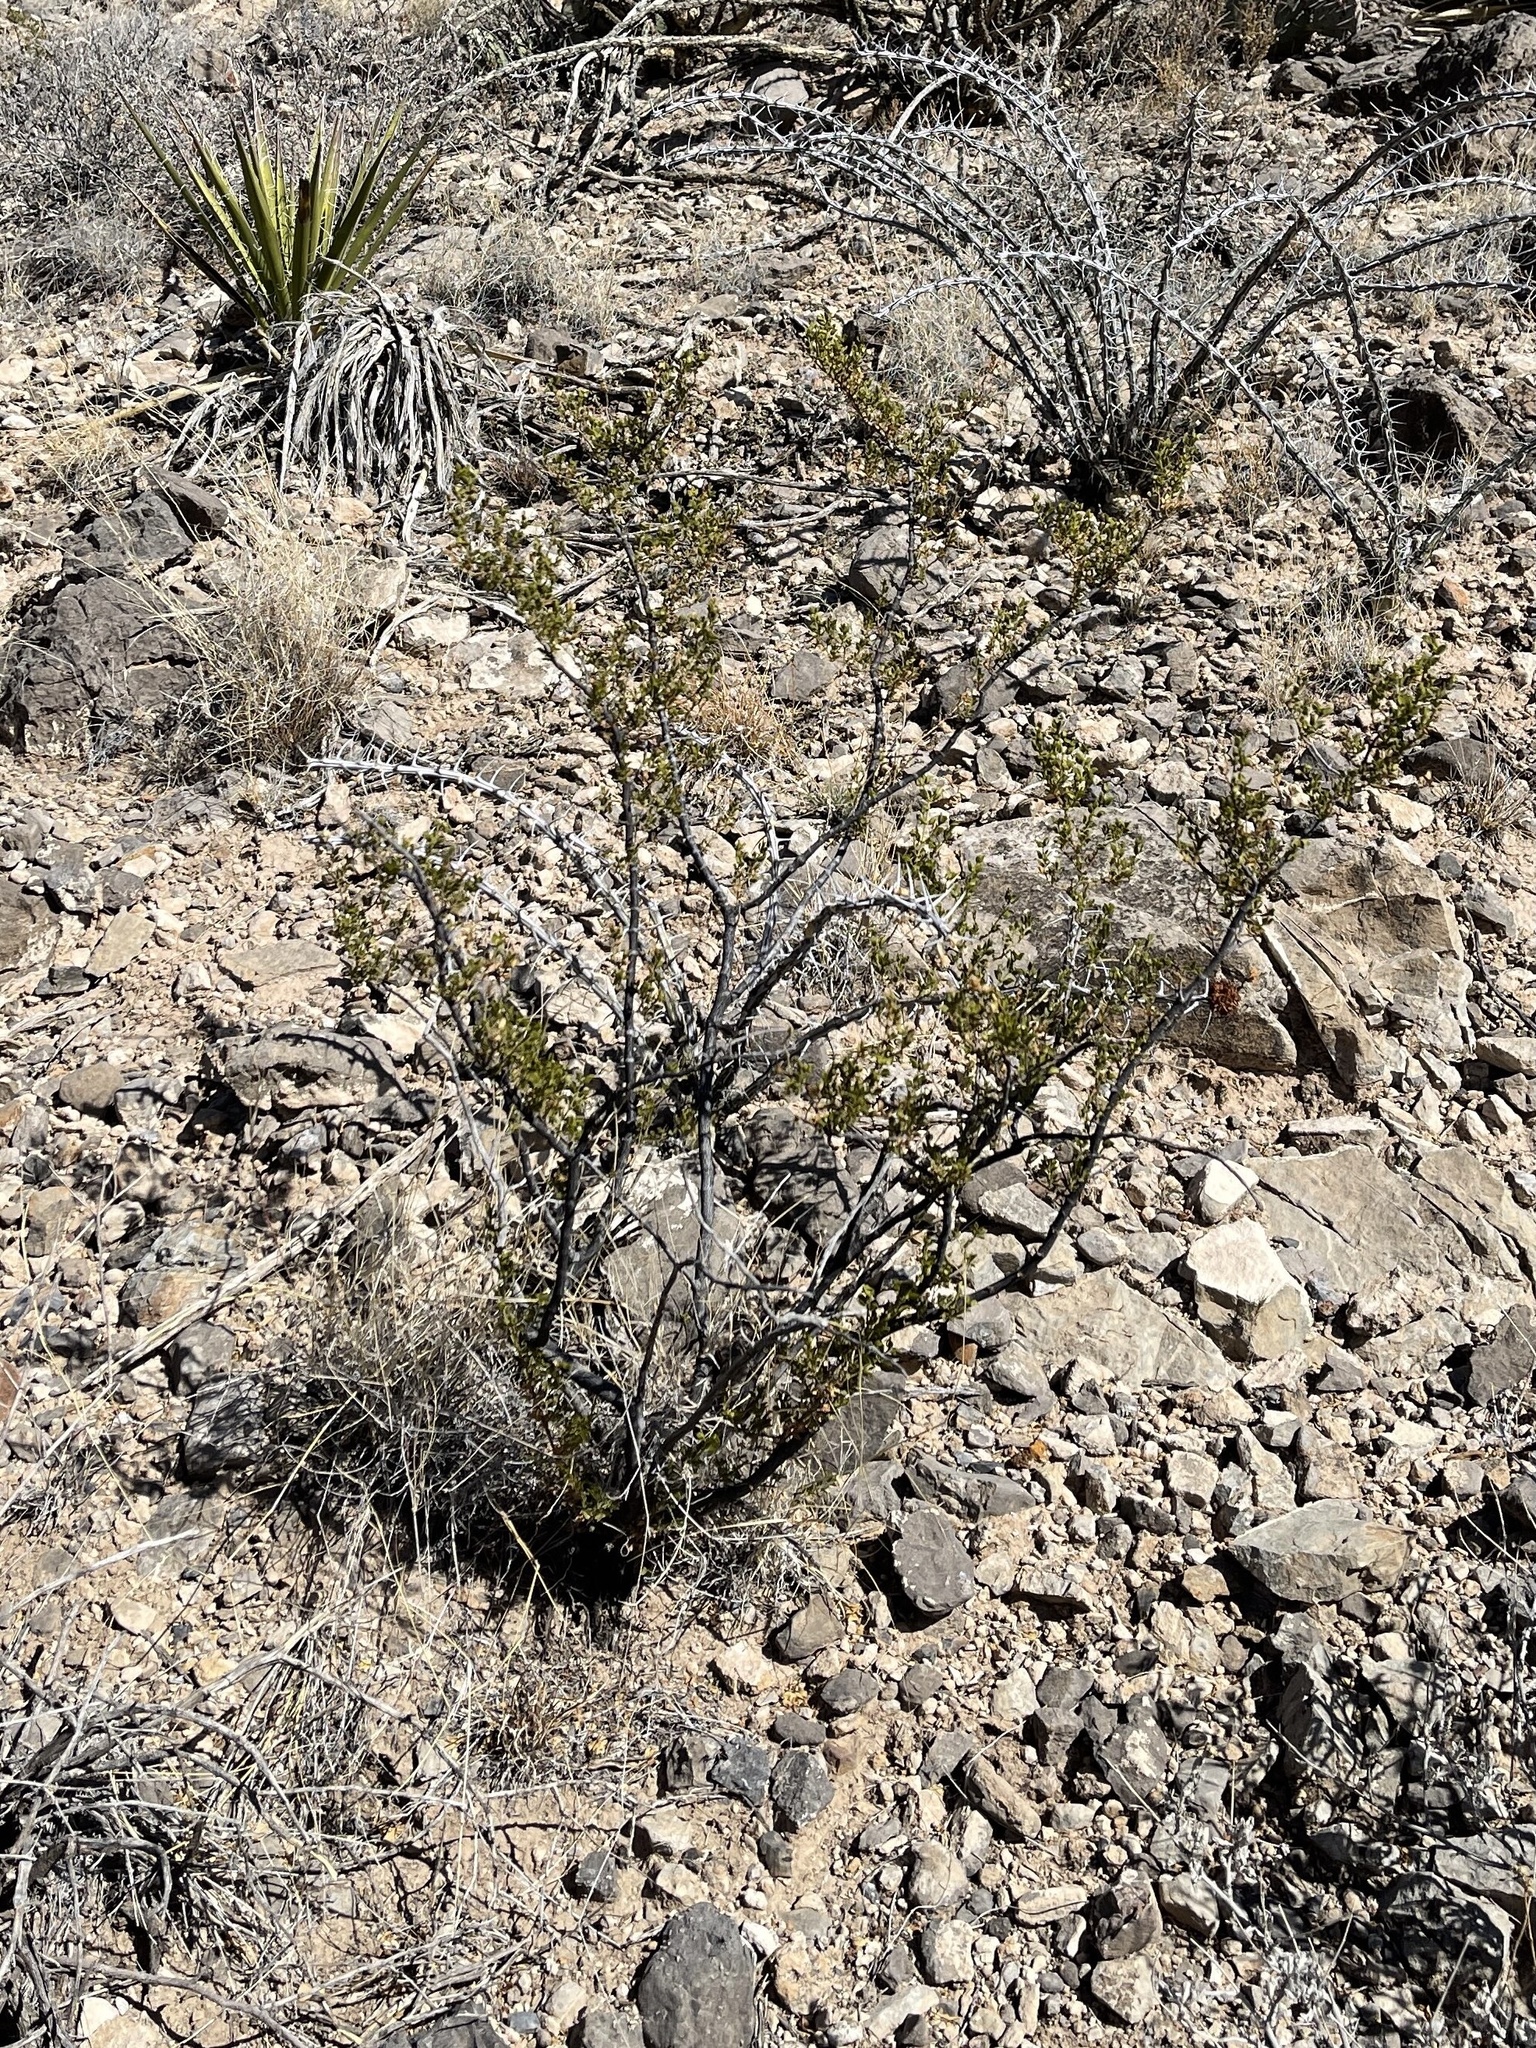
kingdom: Plantae
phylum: Tracheophyta
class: Magnoliopsida
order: Zygophyllales
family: Zygophyllaceae
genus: Larrea
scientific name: Larrea tridentata
